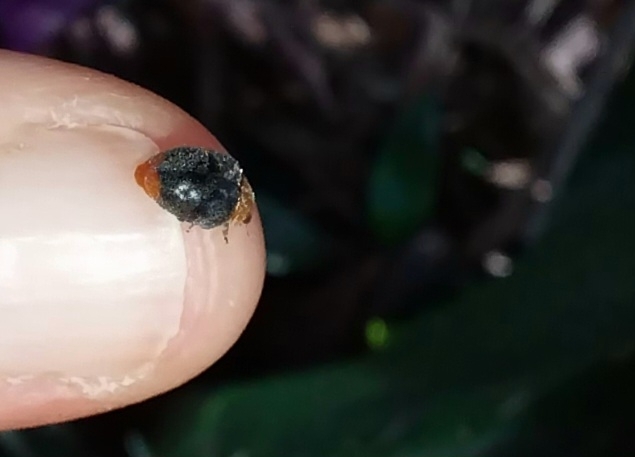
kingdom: Animalia
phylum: Arthropoda
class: Insecta
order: Coleoptera
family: Coccinellidae
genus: Cryptolaemus
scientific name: Cryptolaemus montrouzieri
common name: Mealybug destroyer
